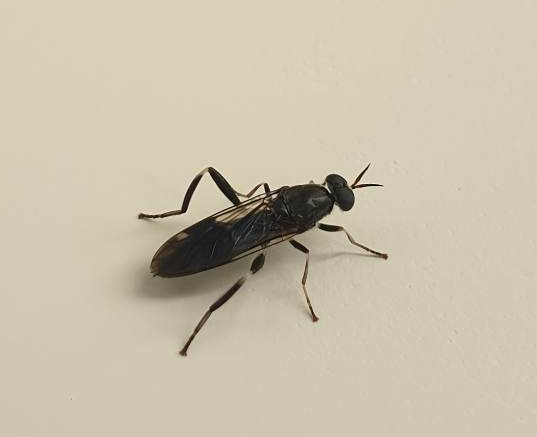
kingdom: Animalia
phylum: Arthropoda
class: Insecta
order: Diptera
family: Stratiomyidae
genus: Exaireta
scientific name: Exaireta spinigera
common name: Blue soldier fly
